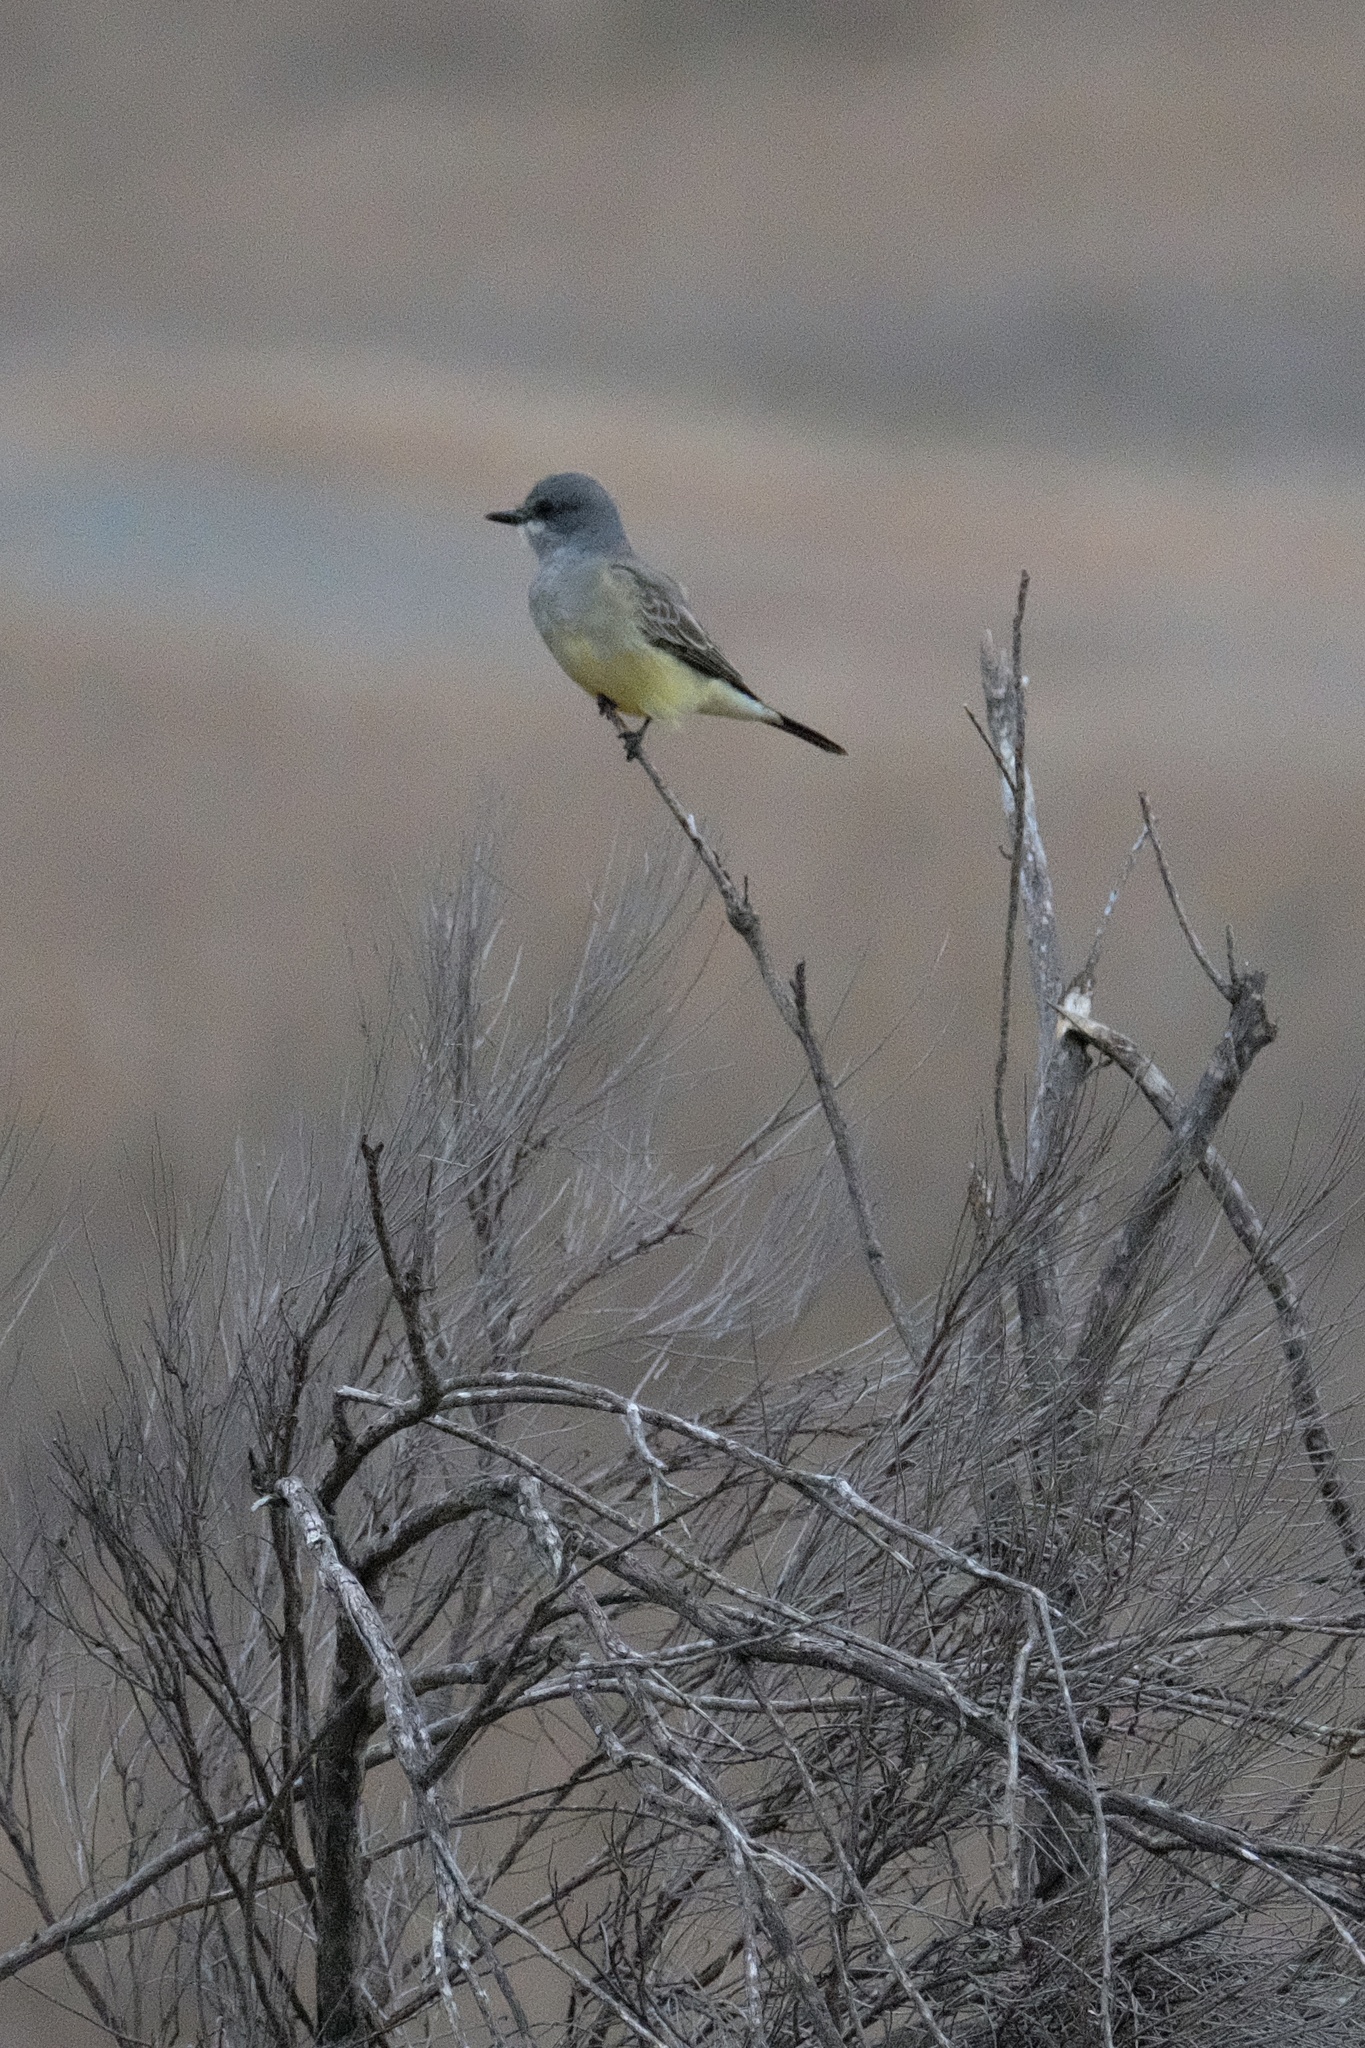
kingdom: Animalia
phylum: Chordata
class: Aves
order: Passeriformes
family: Tyrannidae
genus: Tyrannus
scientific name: Tyrannus vociferans
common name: Cassin's kingbird
